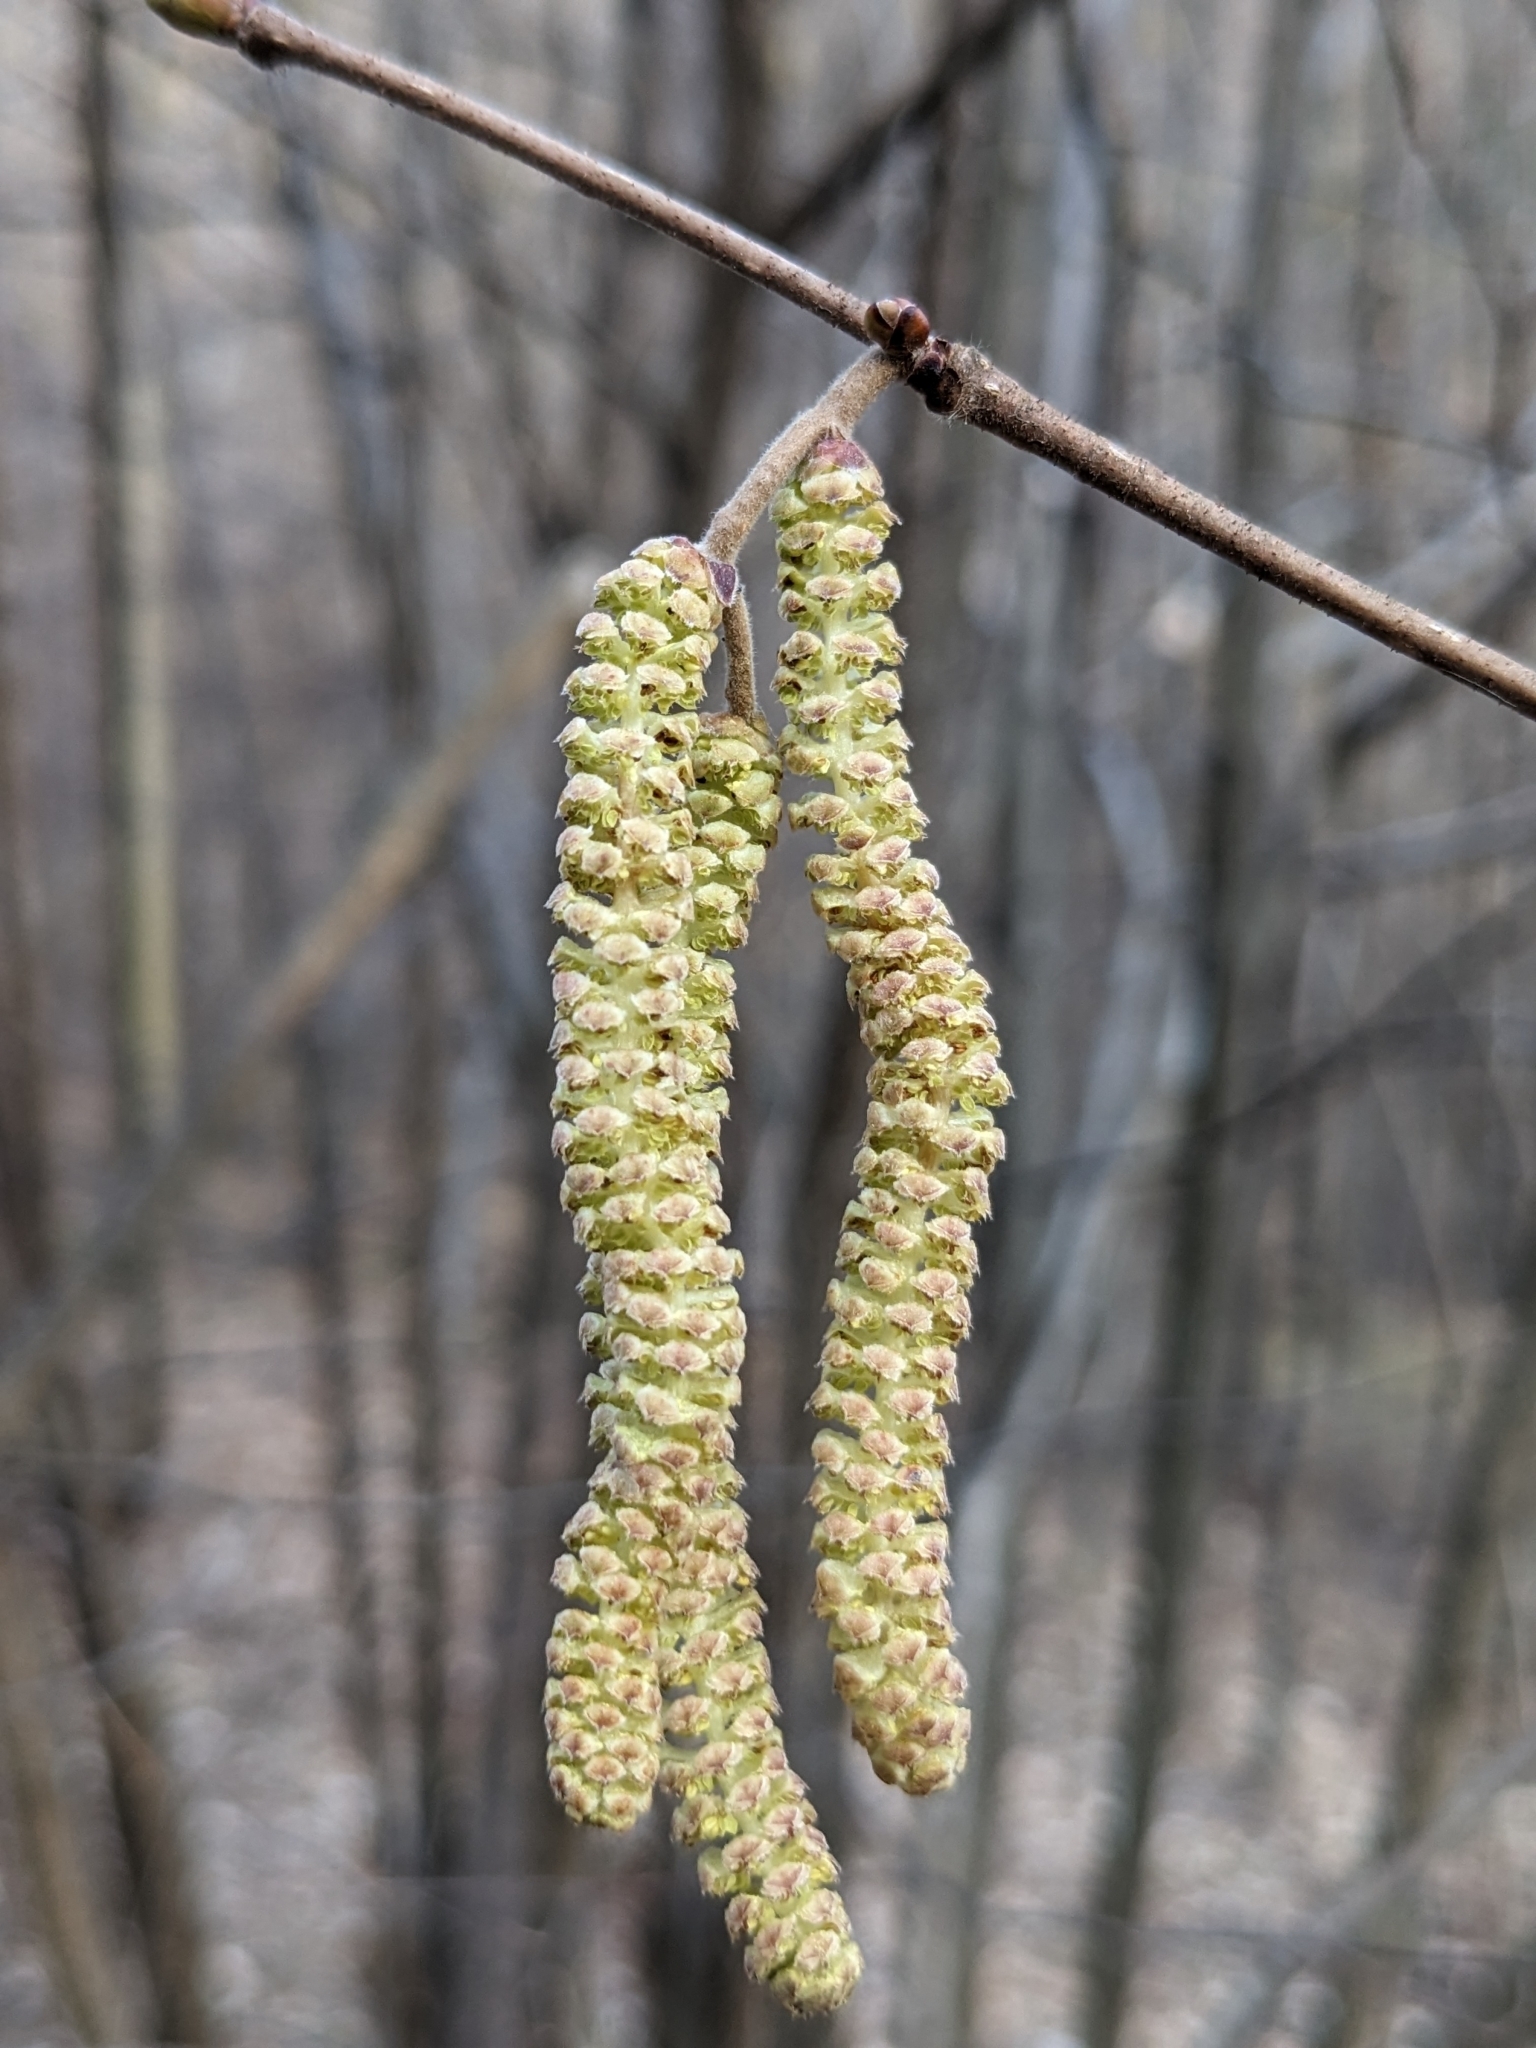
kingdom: Plantae
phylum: Tracheophyta
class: Magnoliopsida
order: Fagales
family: Betulaceae
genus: Corylus
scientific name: Corylus avellana
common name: European hazel
